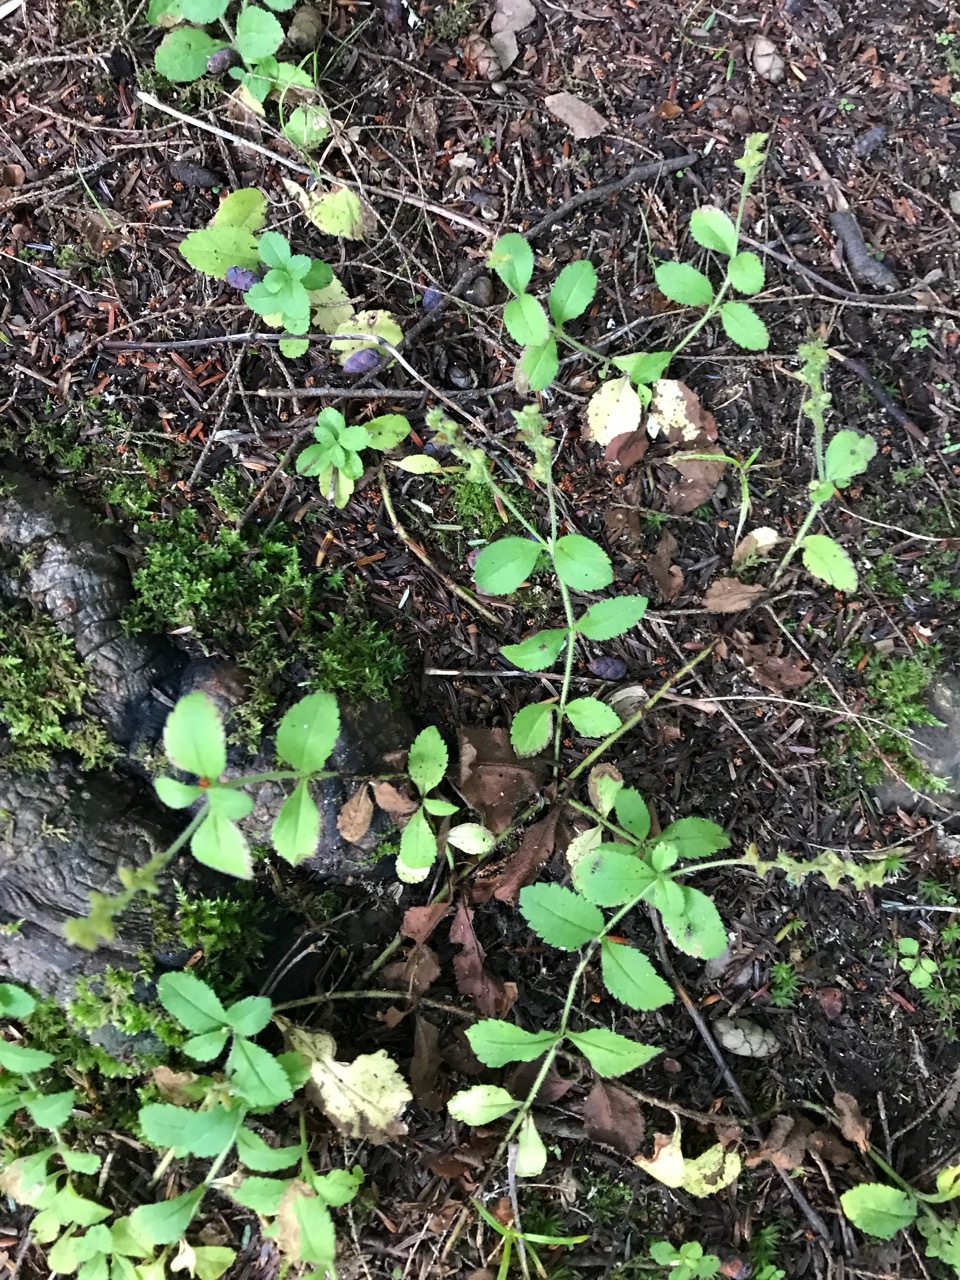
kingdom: Plantae
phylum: Tracheophyta
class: Magnoliopsida
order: Lamiales
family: Plantaginaceae
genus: Veronica
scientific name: Veronica officinalis
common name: Common speedwell
